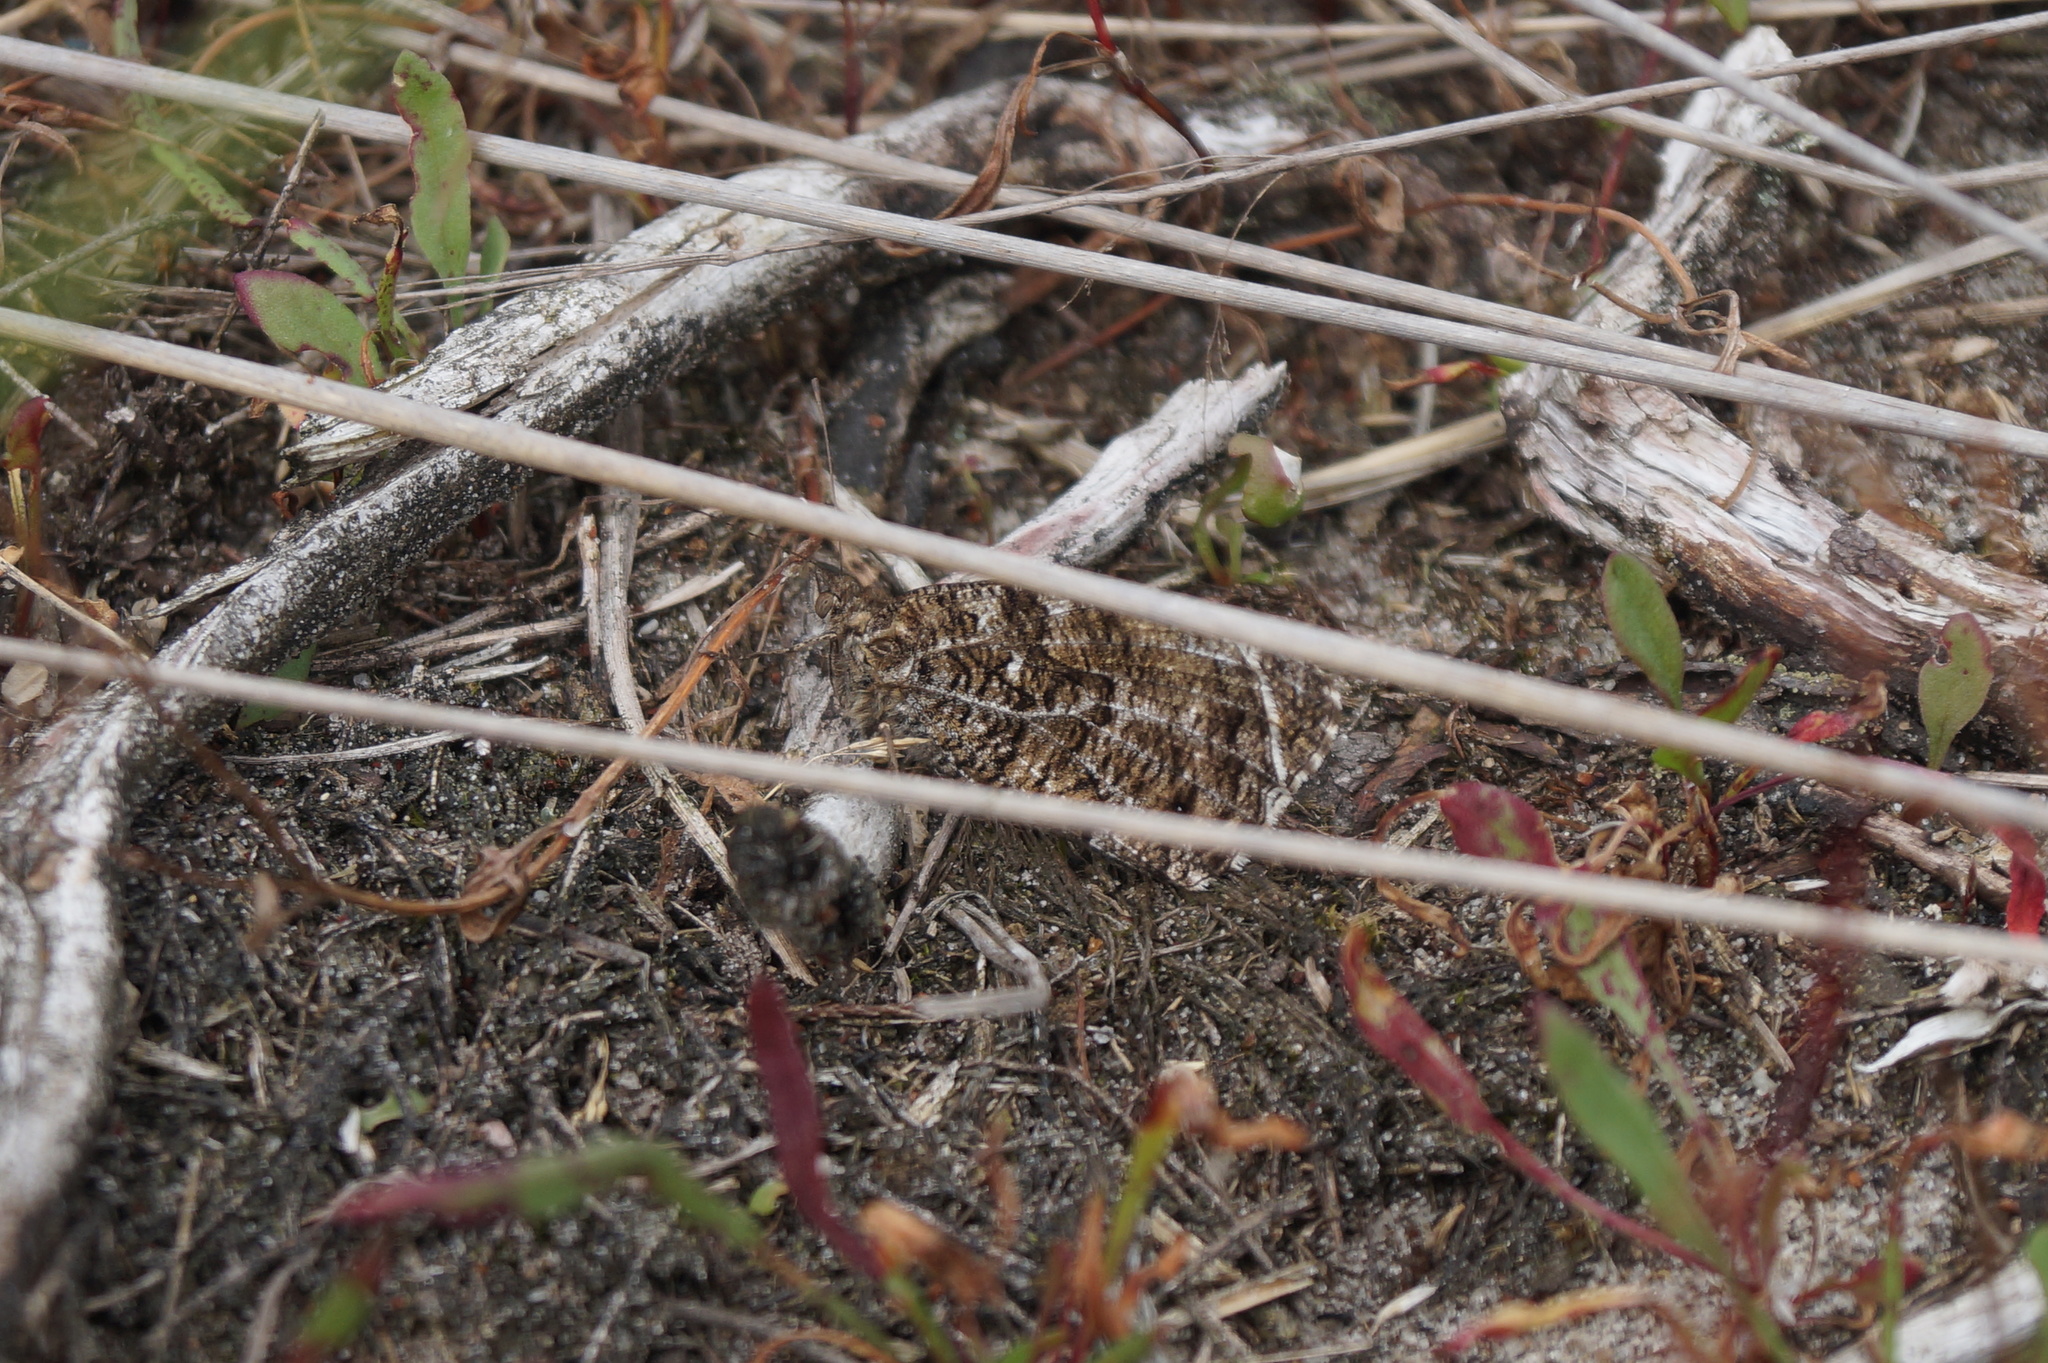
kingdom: Animalia
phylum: Arthropoda
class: Insecta
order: Lepidoptera
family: Nymphalidae
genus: Hipparchia
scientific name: Hipparchia semele
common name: Grayling
